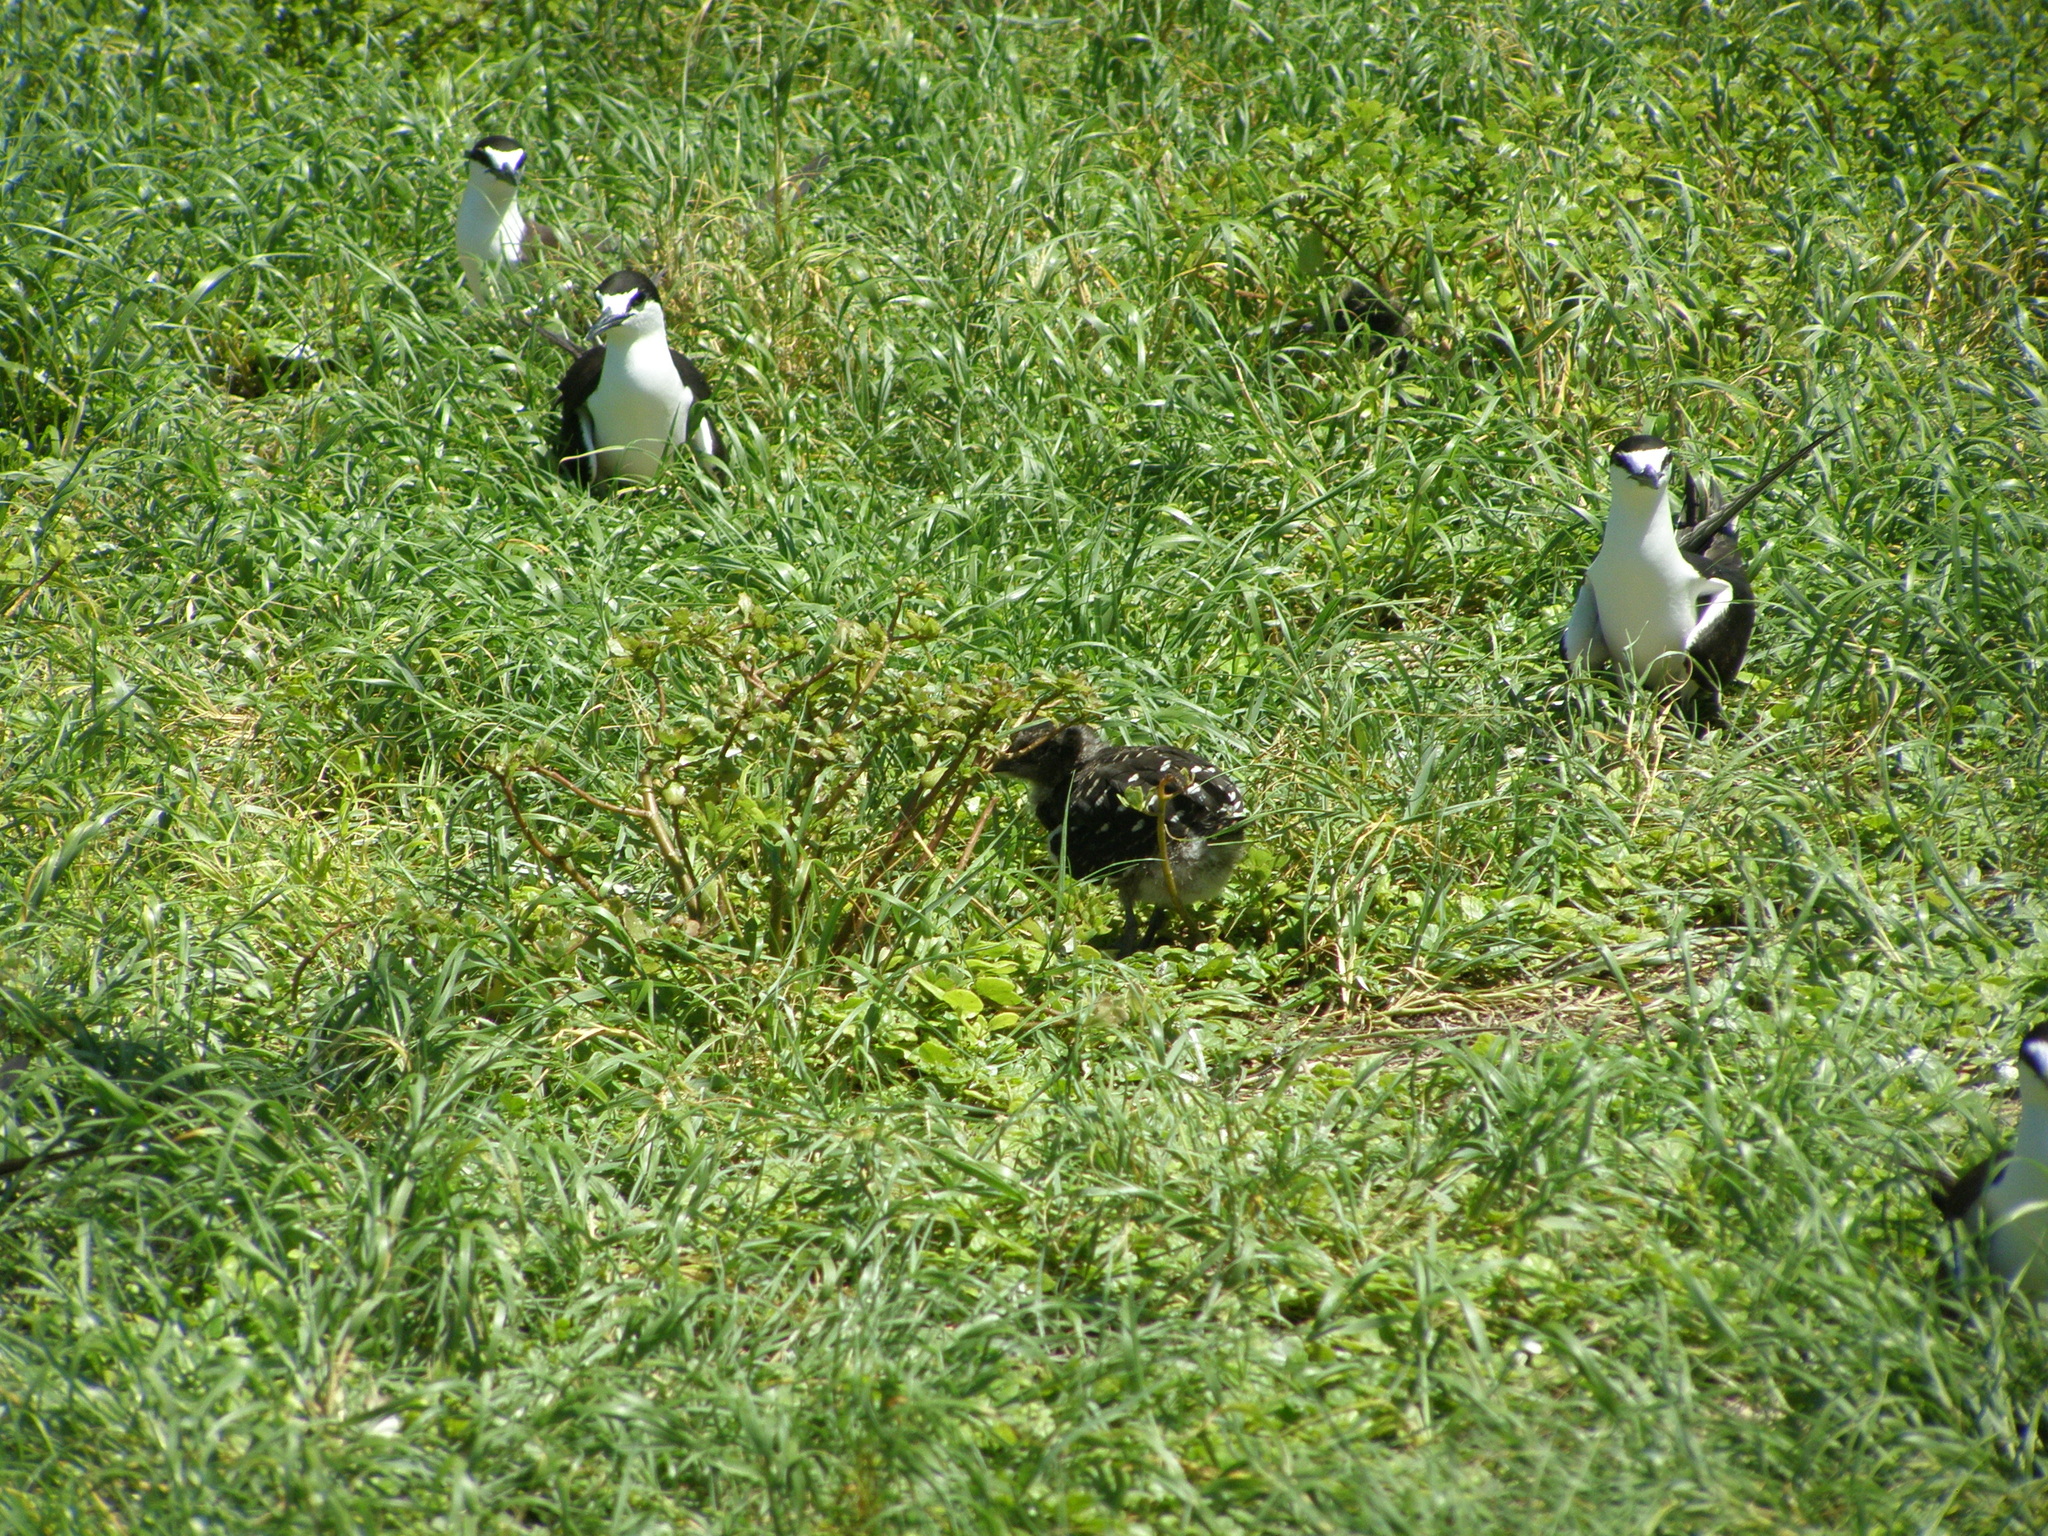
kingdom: Animalia
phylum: Chordata
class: Aves
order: Charadriiformes
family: Laridae
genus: Onychoprion
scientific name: Onychoprion fuscatus
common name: Sooty tern
